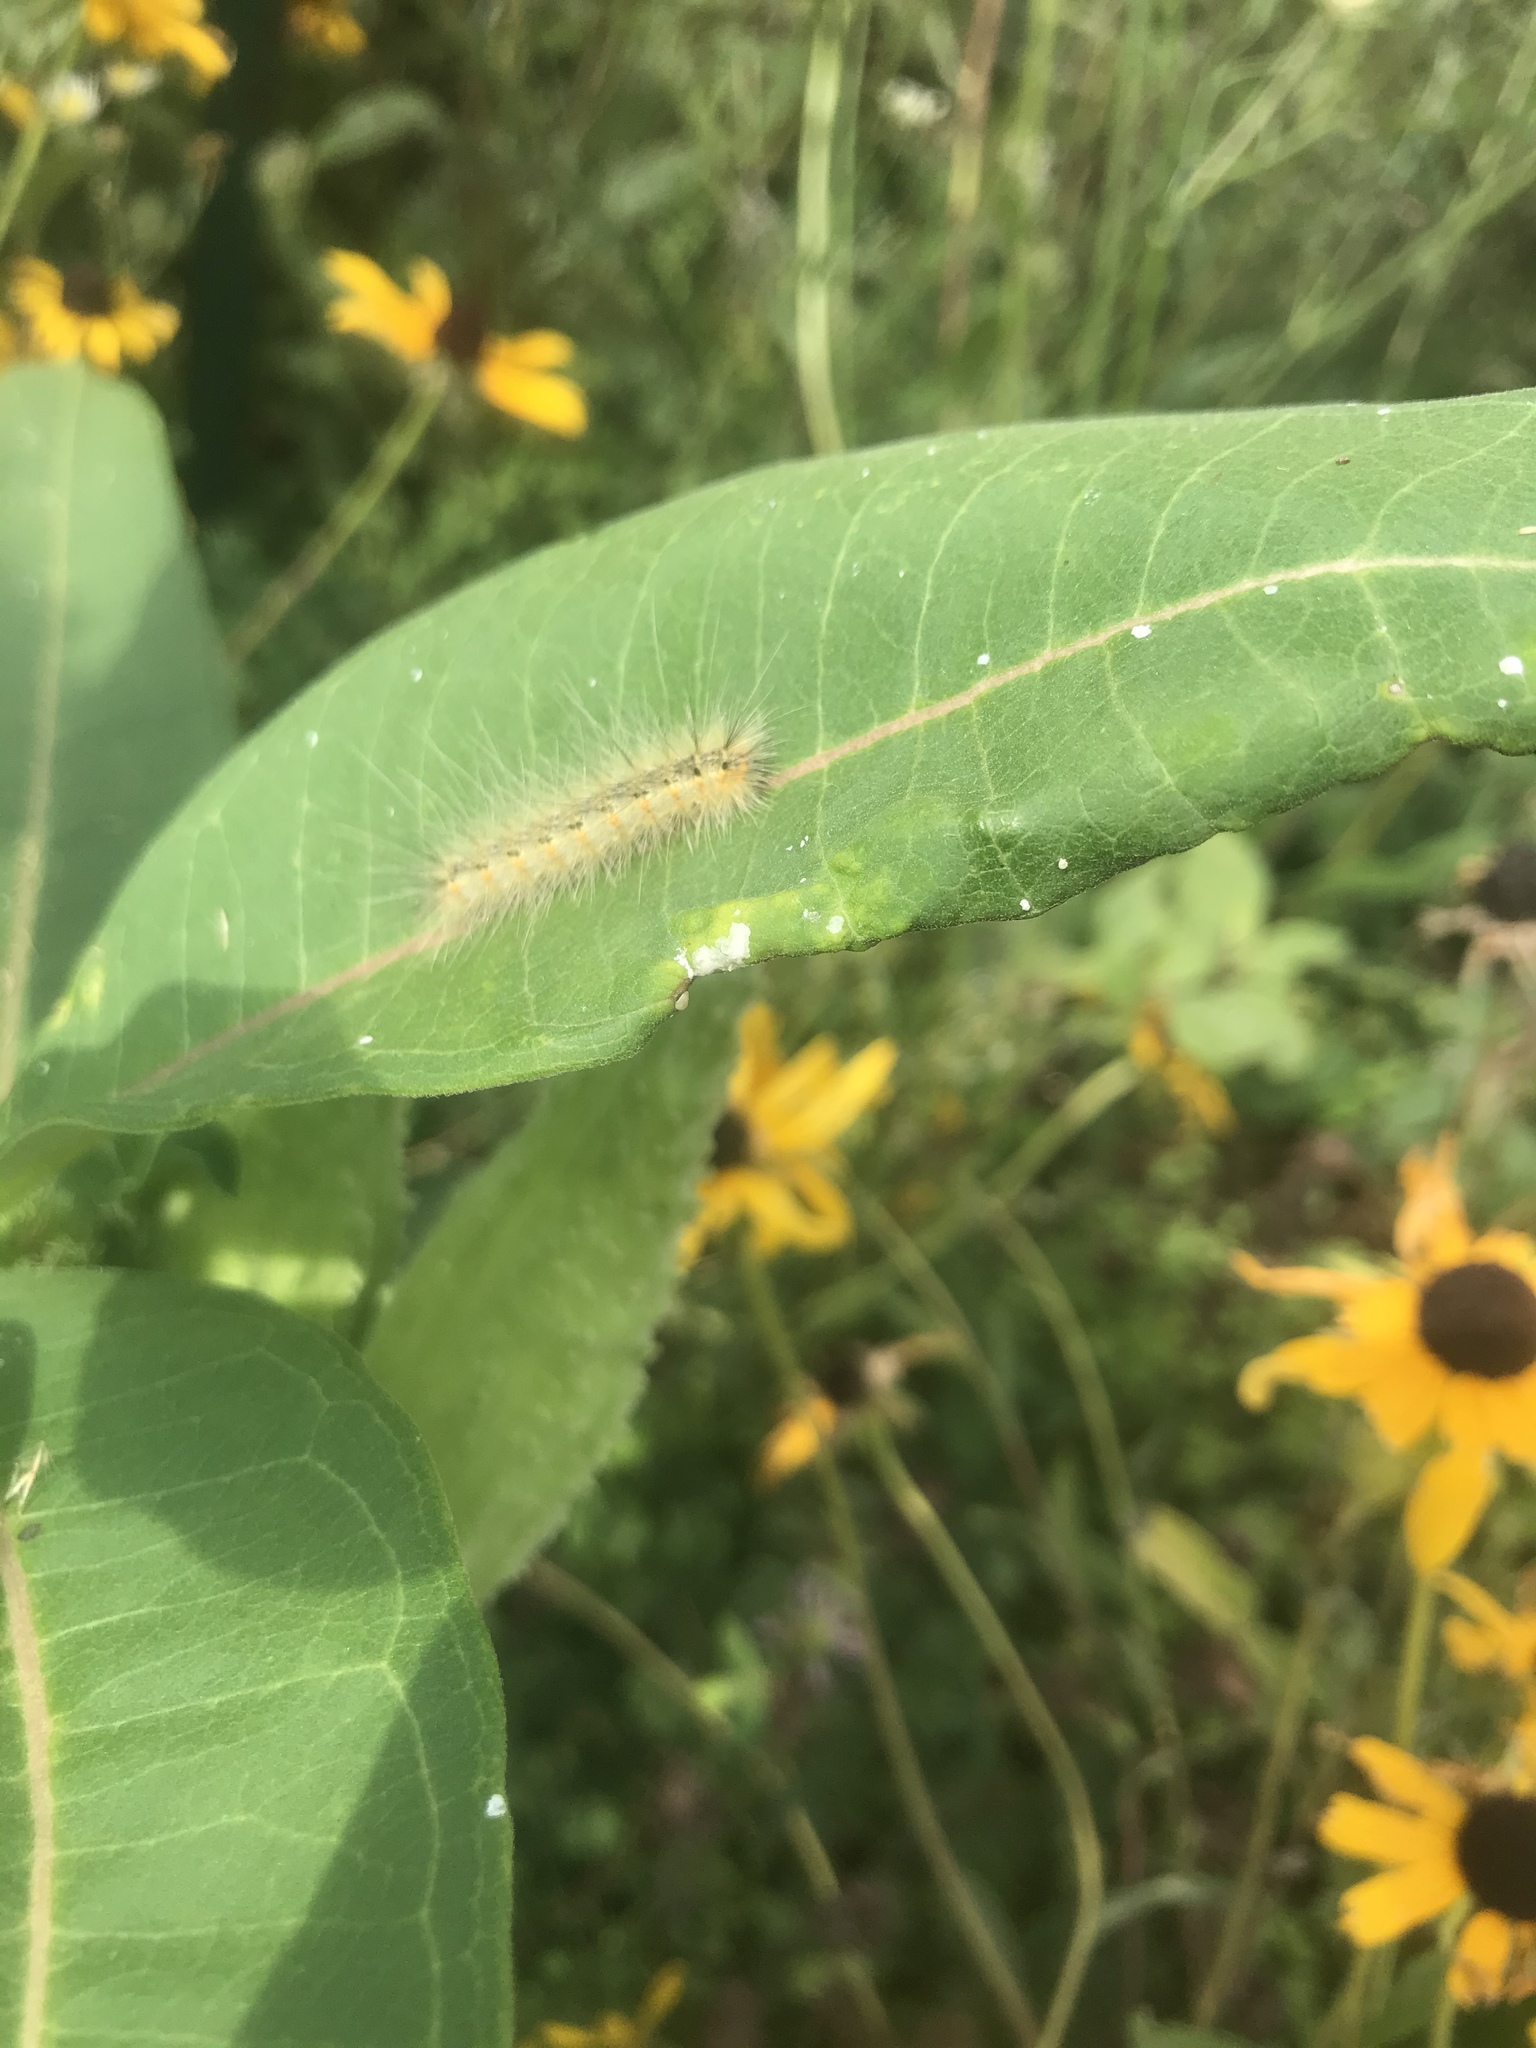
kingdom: Animalia
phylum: Arthropoda
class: Insecta
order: Lepidoptera
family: Erebidae
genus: Hyphantria
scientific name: Hyphantria cunea
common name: American white moth
